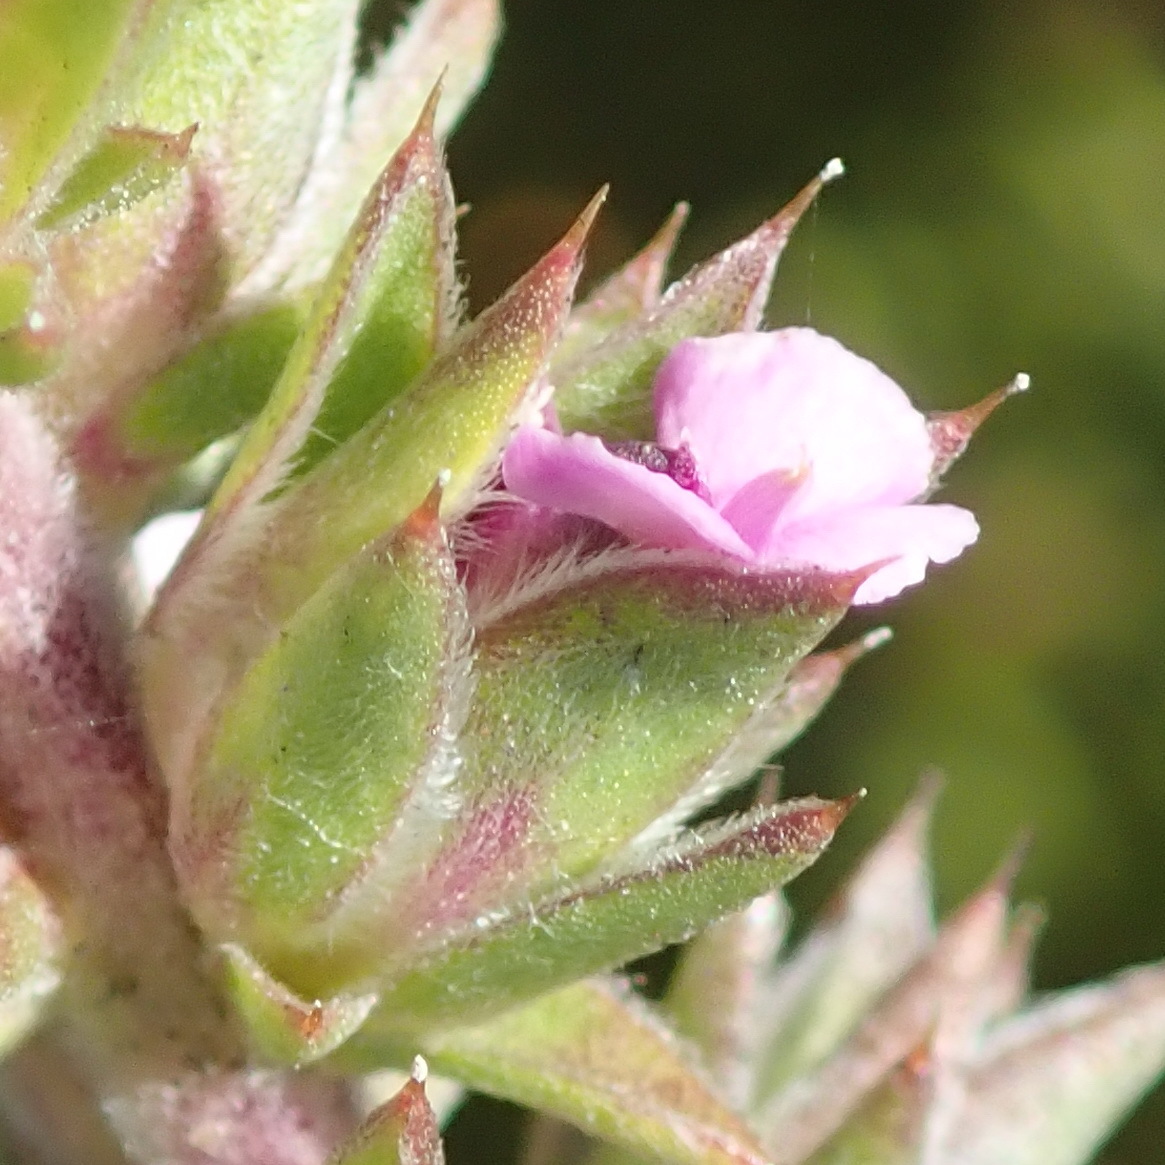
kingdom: Plantae
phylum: Tracheophyta
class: Magnoliopsida
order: Fabales
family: Polygalaceae
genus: Muraltia
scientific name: Muraltia squarrosa
